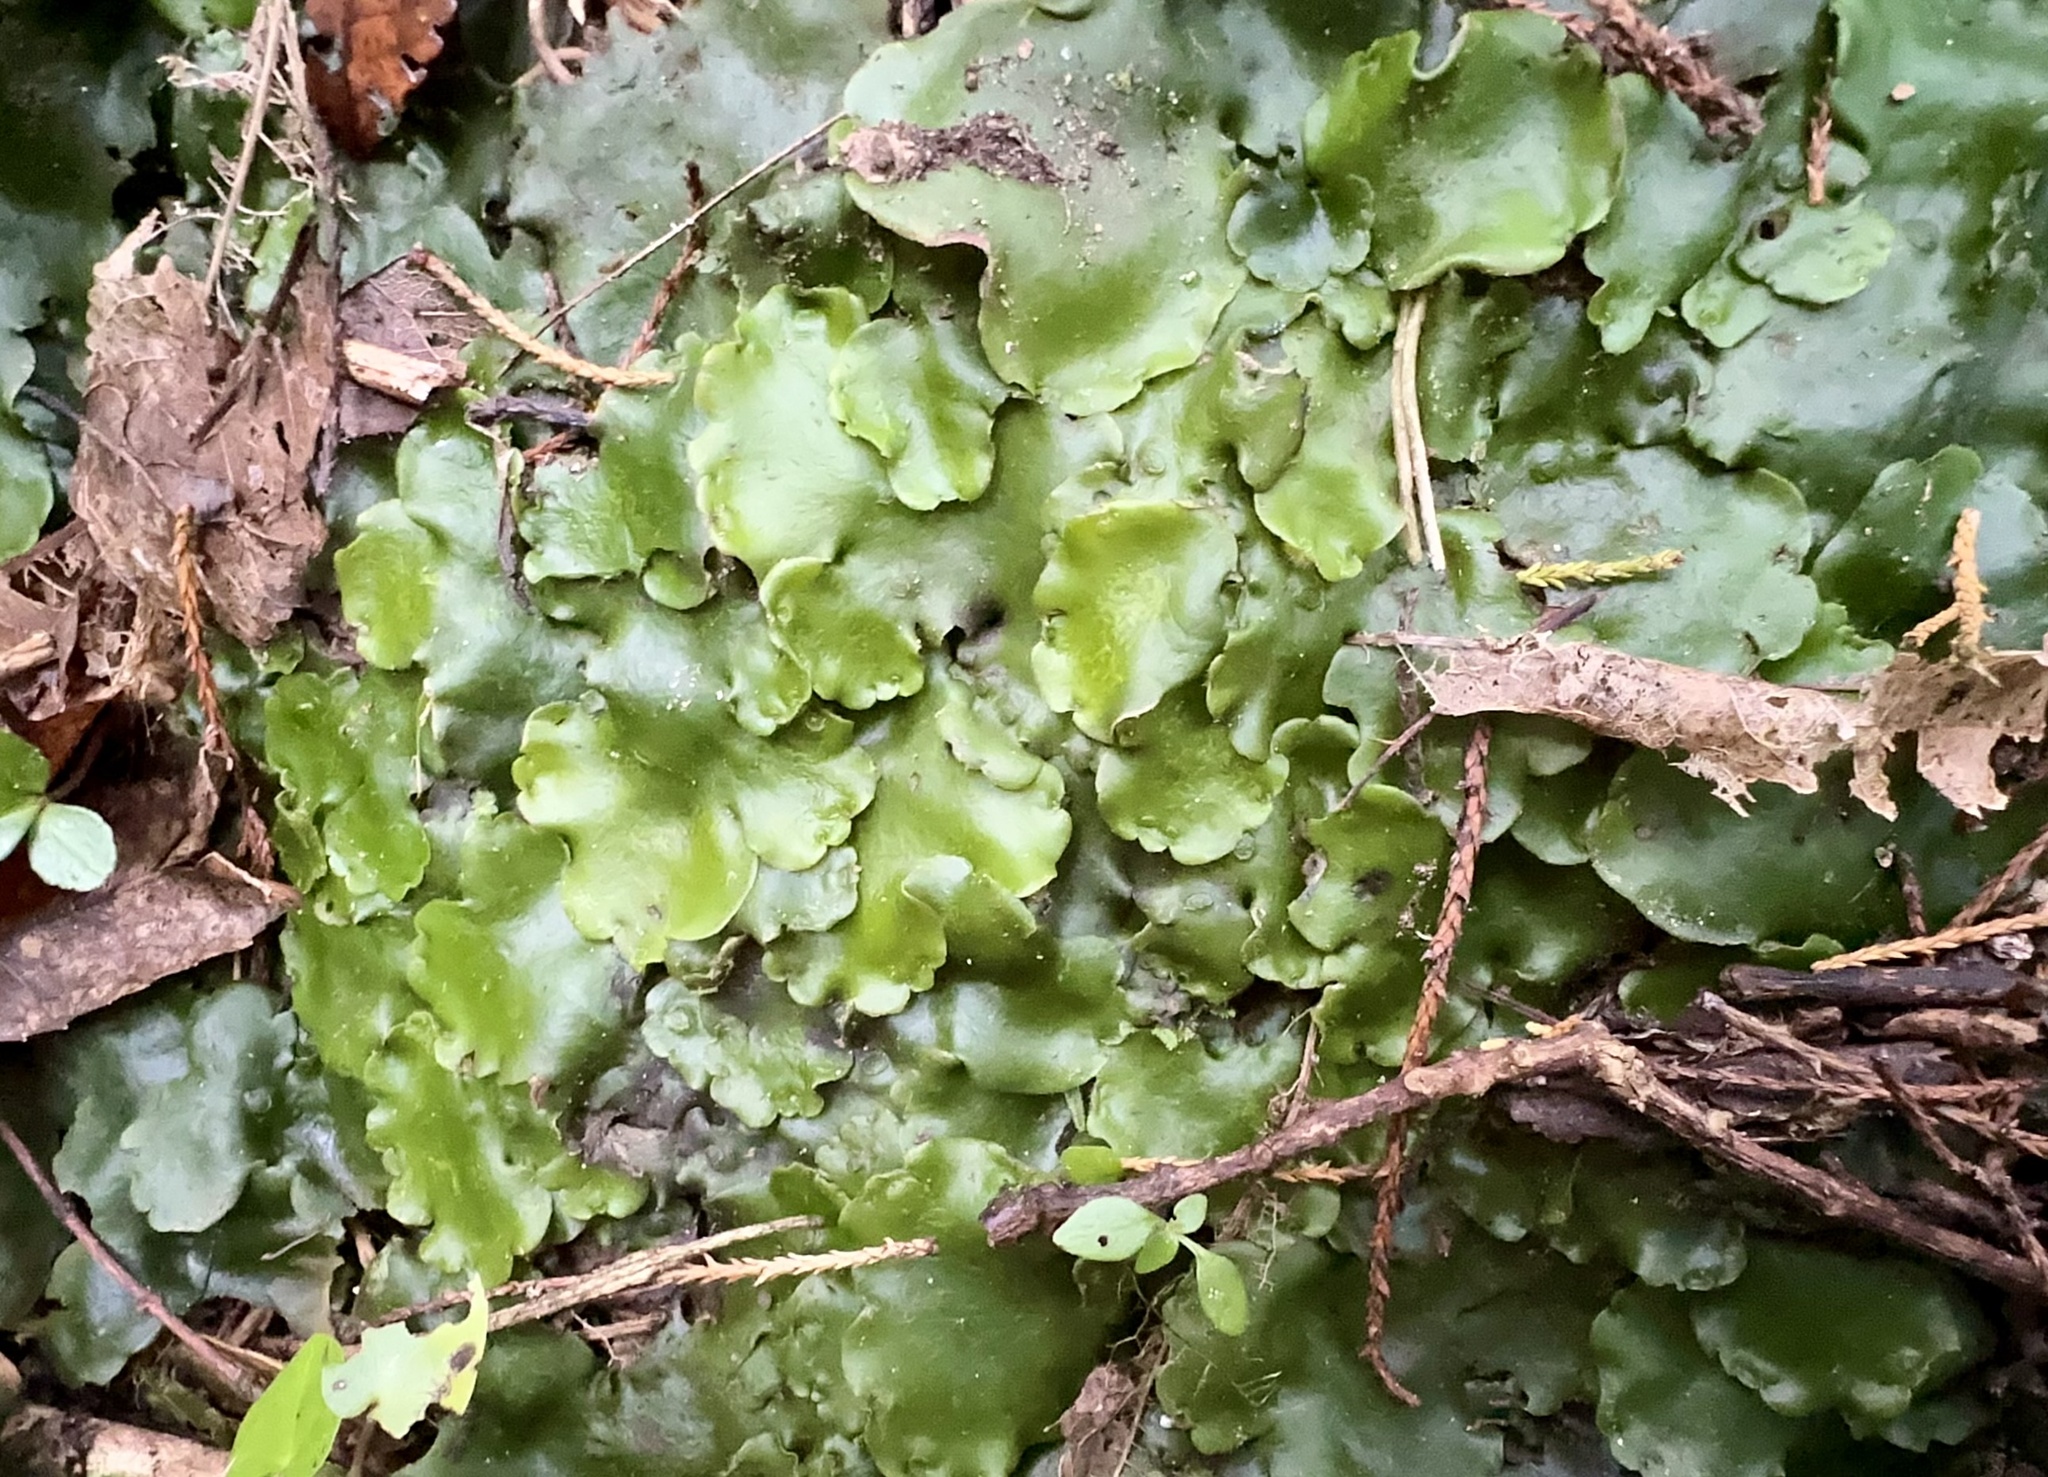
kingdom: Plantae
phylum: Marchantiophyta
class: Marchantiopsida
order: Marchantiales
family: Monocleaceae
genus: Monoclea
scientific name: Monoclea forsteri
